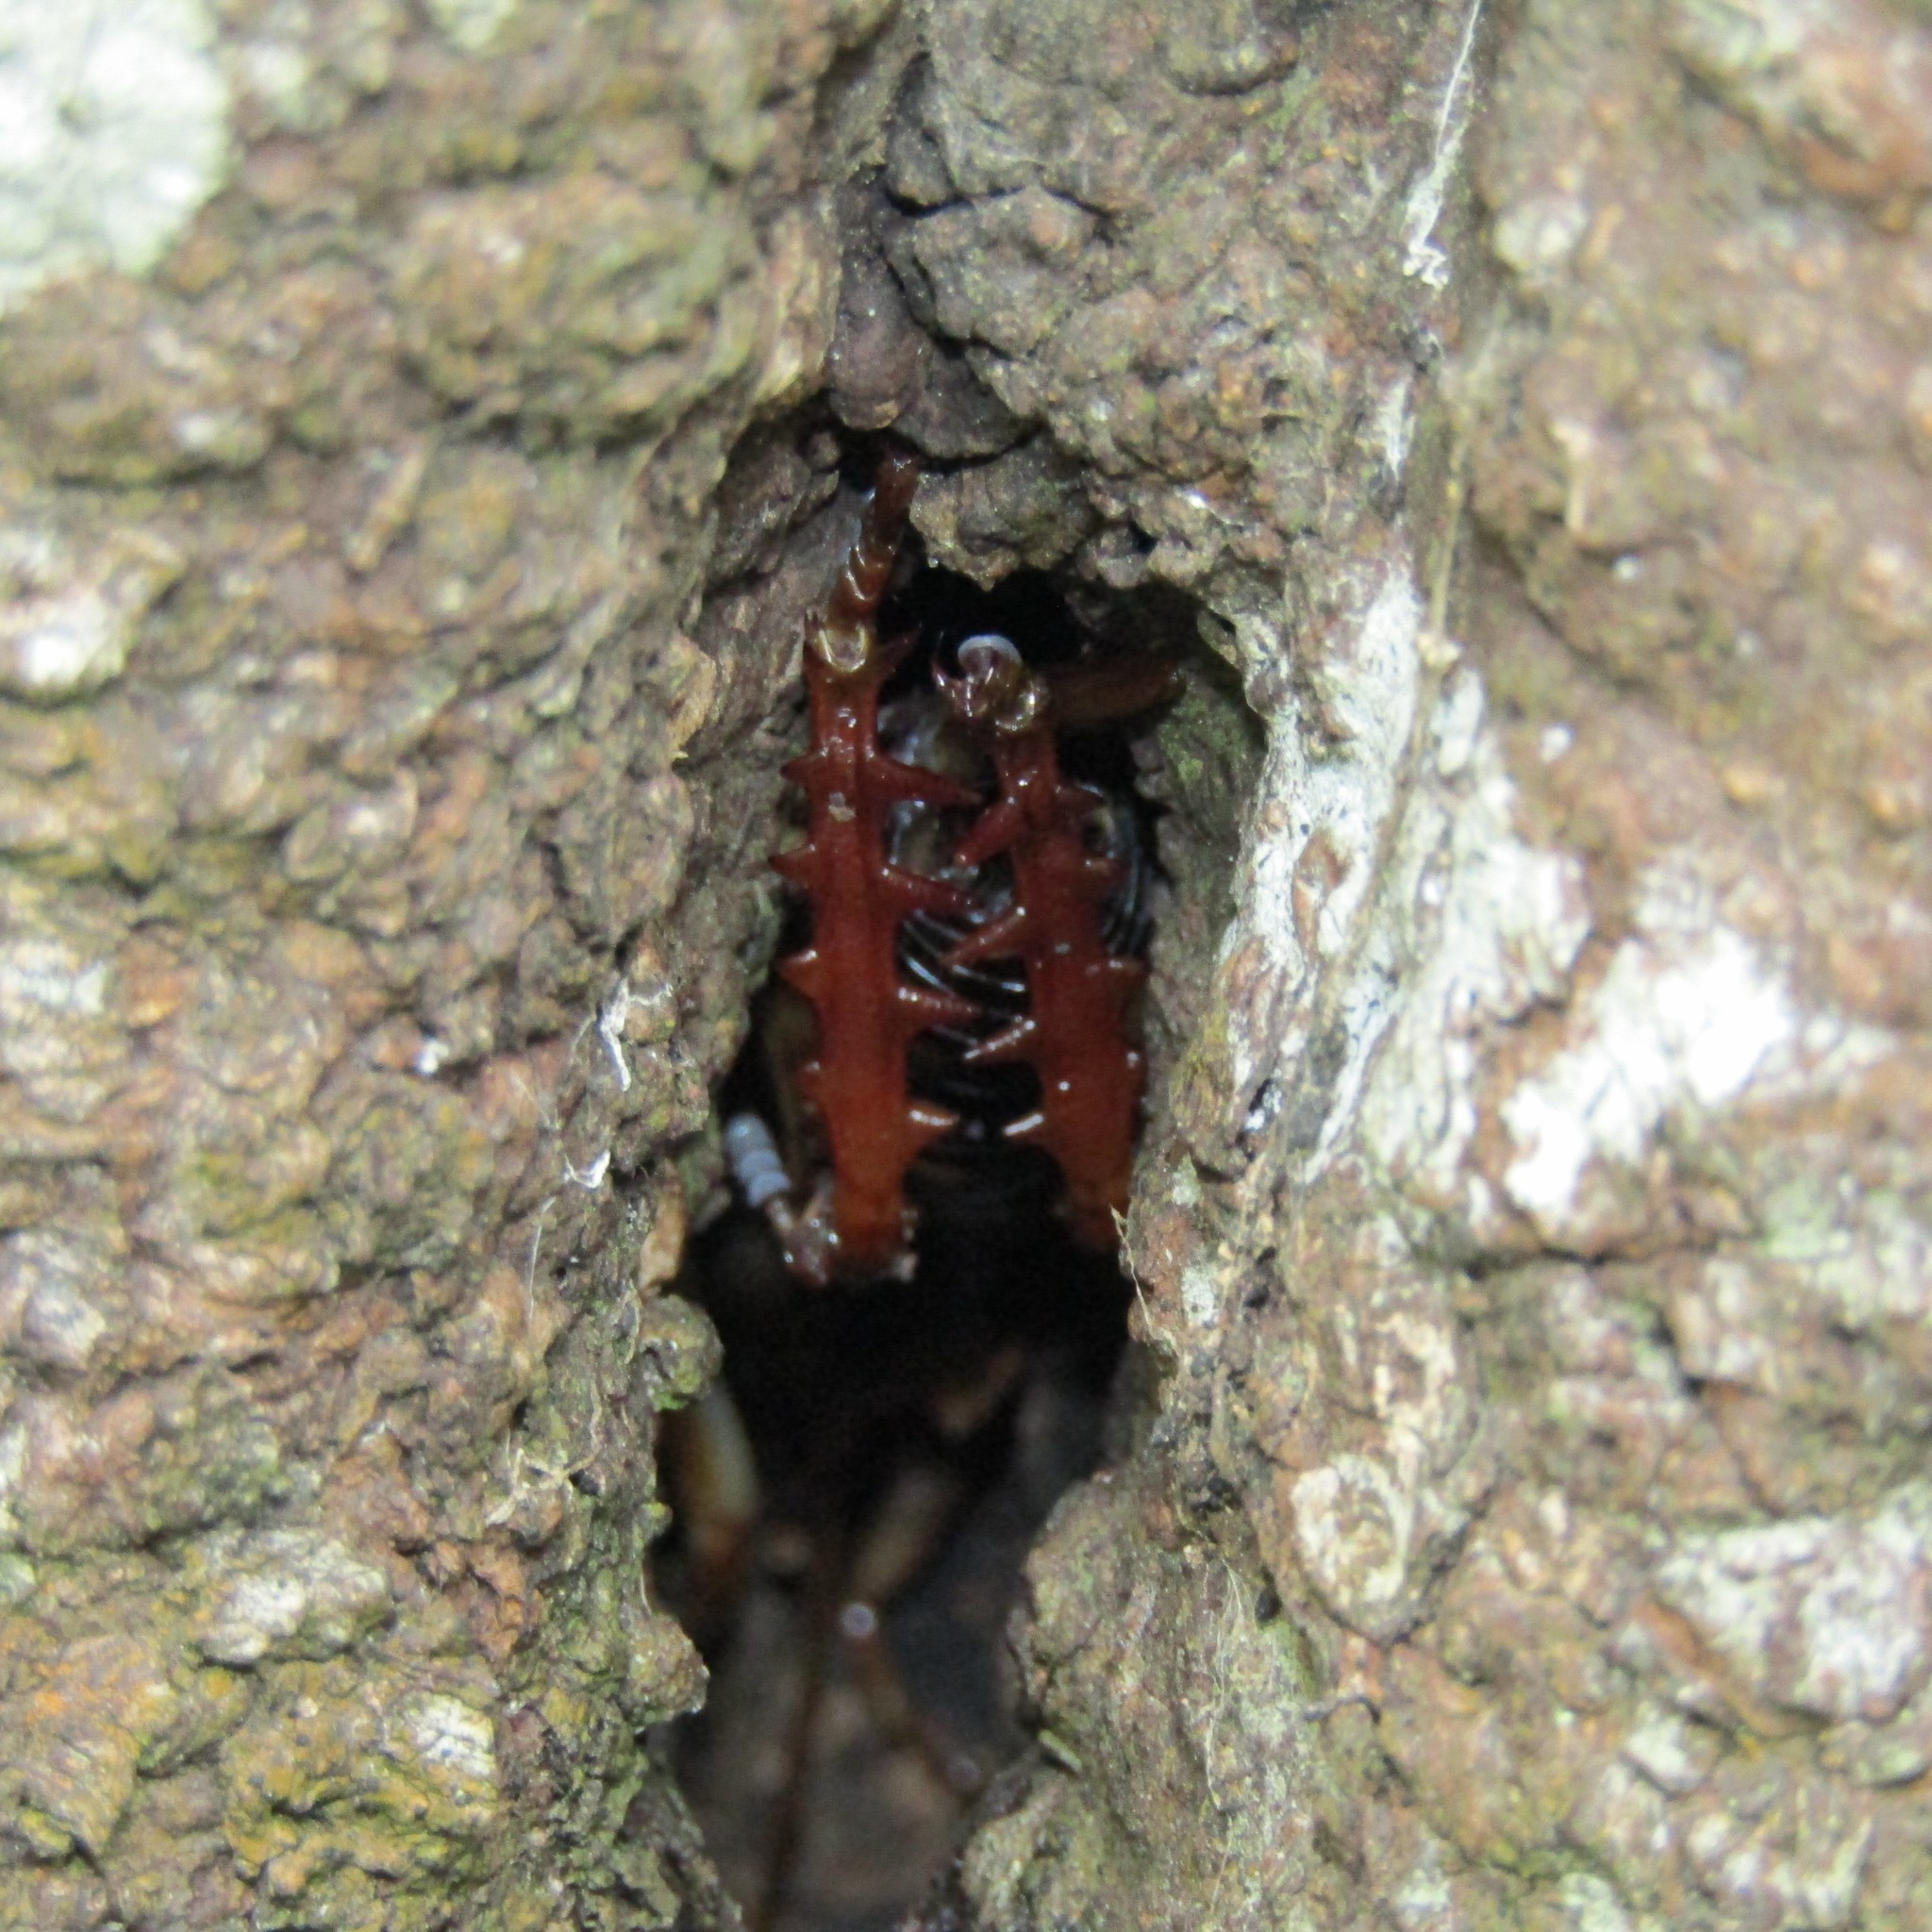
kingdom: Animalia
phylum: Arthropoda
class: Insecta
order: Orthoptera
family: Anostostomatidae
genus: Hemideina
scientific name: Hemideina crassidens
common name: Wellington tree weta
